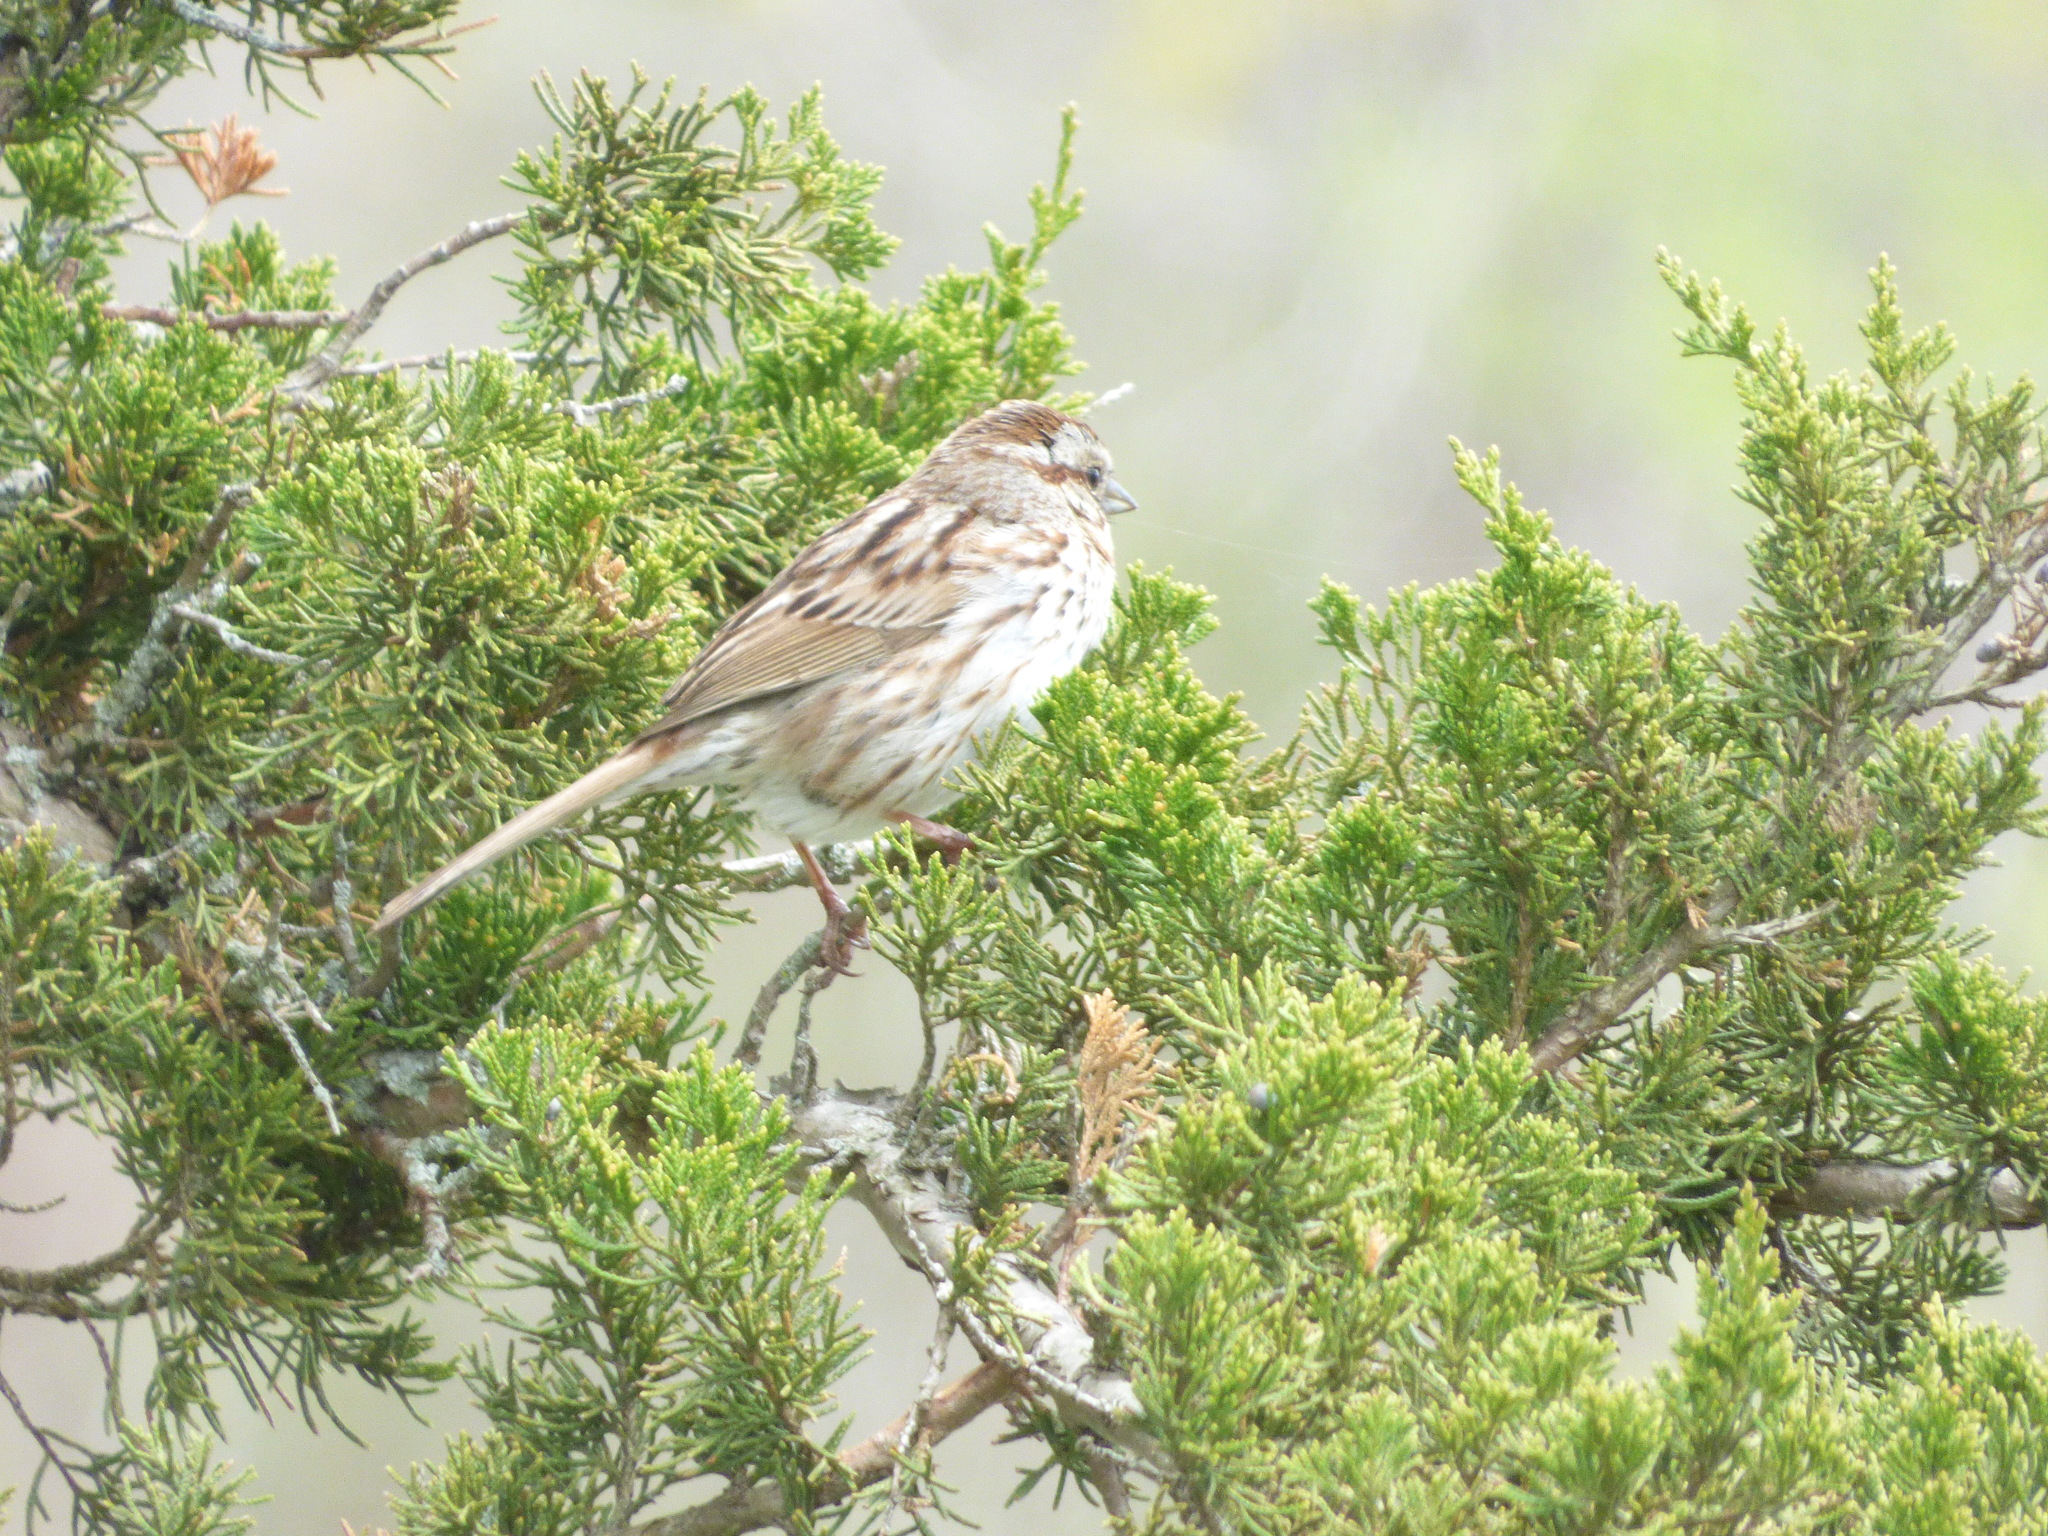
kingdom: Animalia
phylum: Chordata
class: Aves
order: Passeriformes
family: Passerellidae
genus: Melospiza
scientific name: Melospiza melodia
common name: Song sparrow
